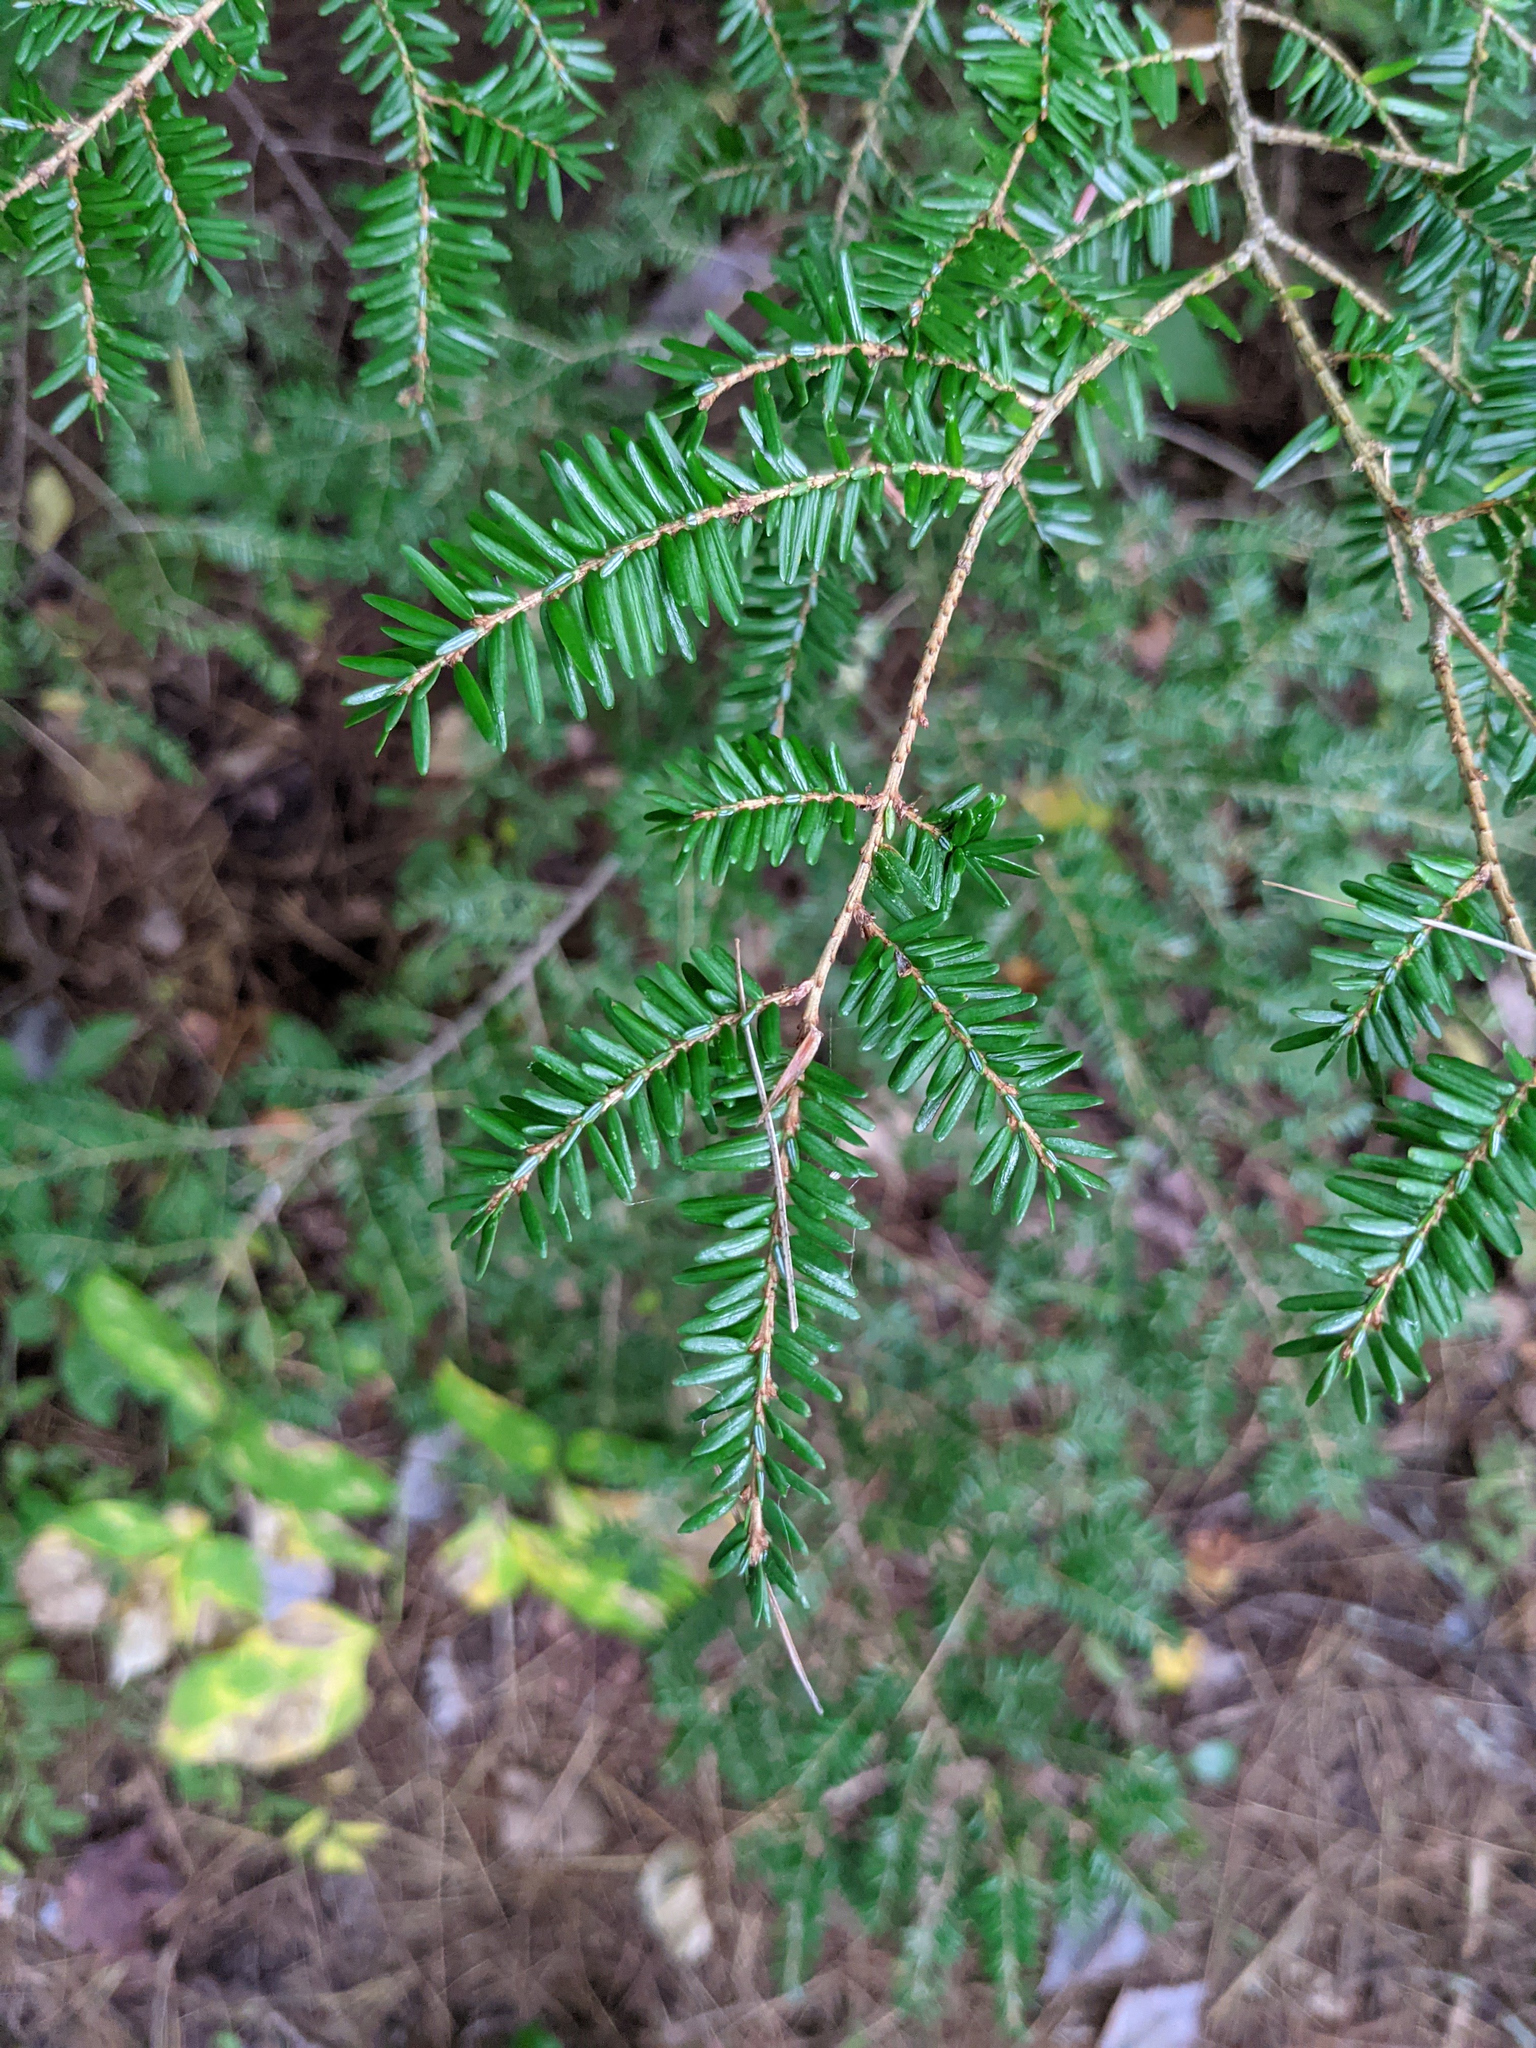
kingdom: Plantae
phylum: Tracheophyta
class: Pinopsida
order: Pinales
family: Pinaceae
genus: Tsuga
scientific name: Tsuga canadensis
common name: Eastern hemlock
